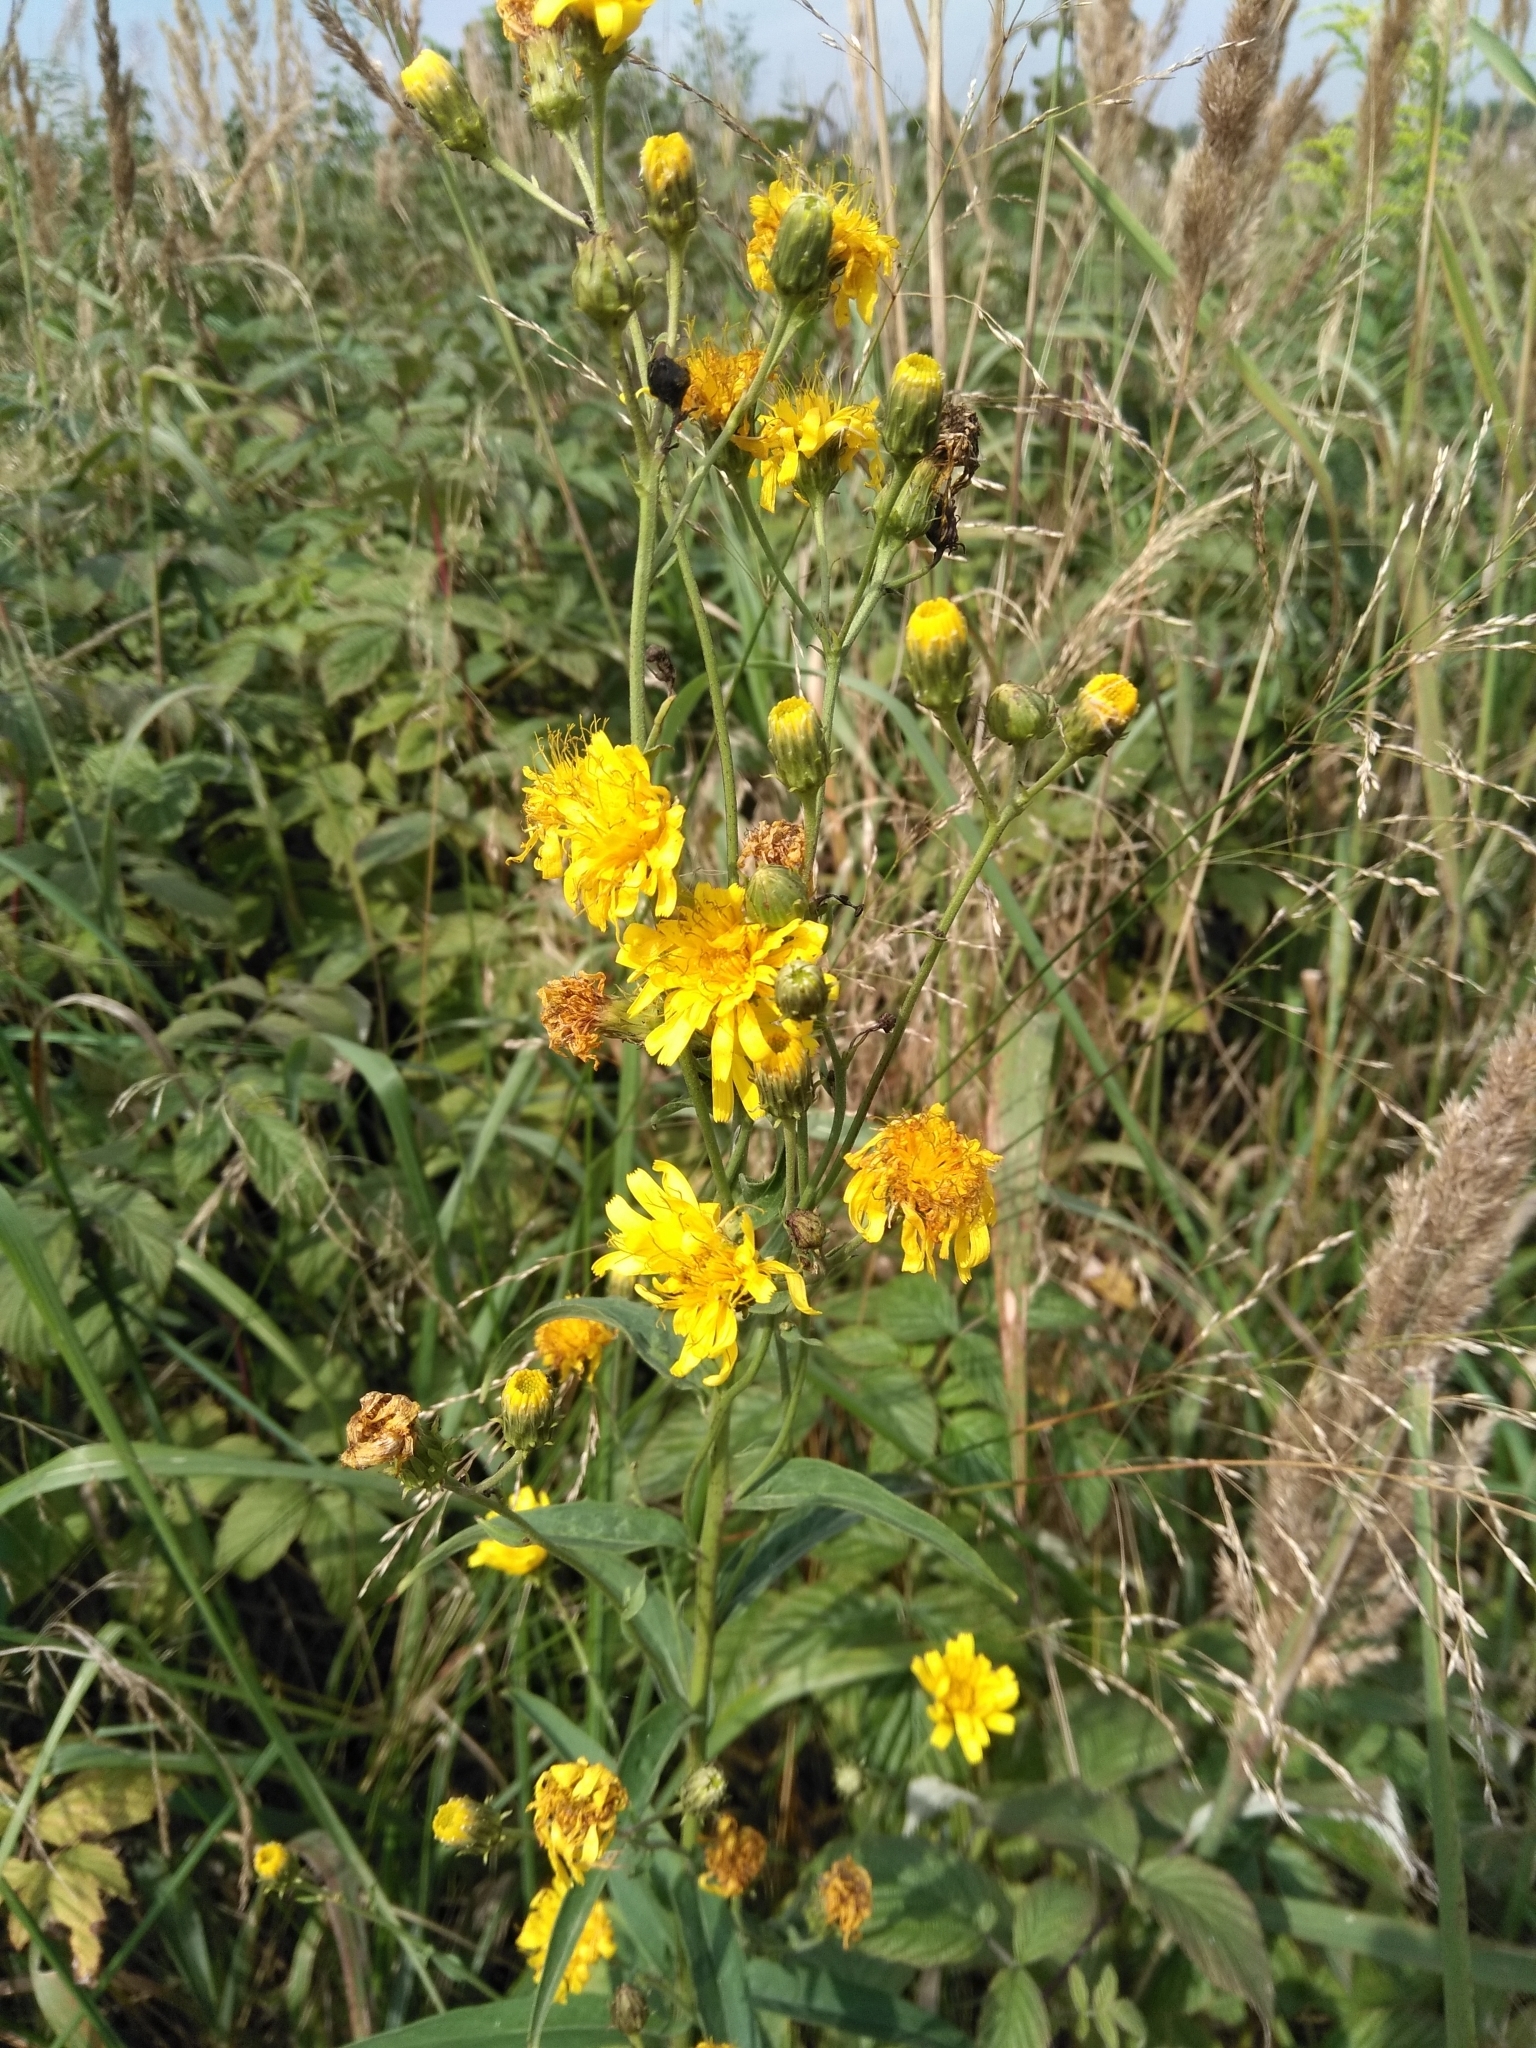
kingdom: Plantae
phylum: Tracheophyta
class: Magnoliopsida
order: Asterales
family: Asteraceae
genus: Hieracium
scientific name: Hieracium umbellatum
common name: Northern hawkweed
